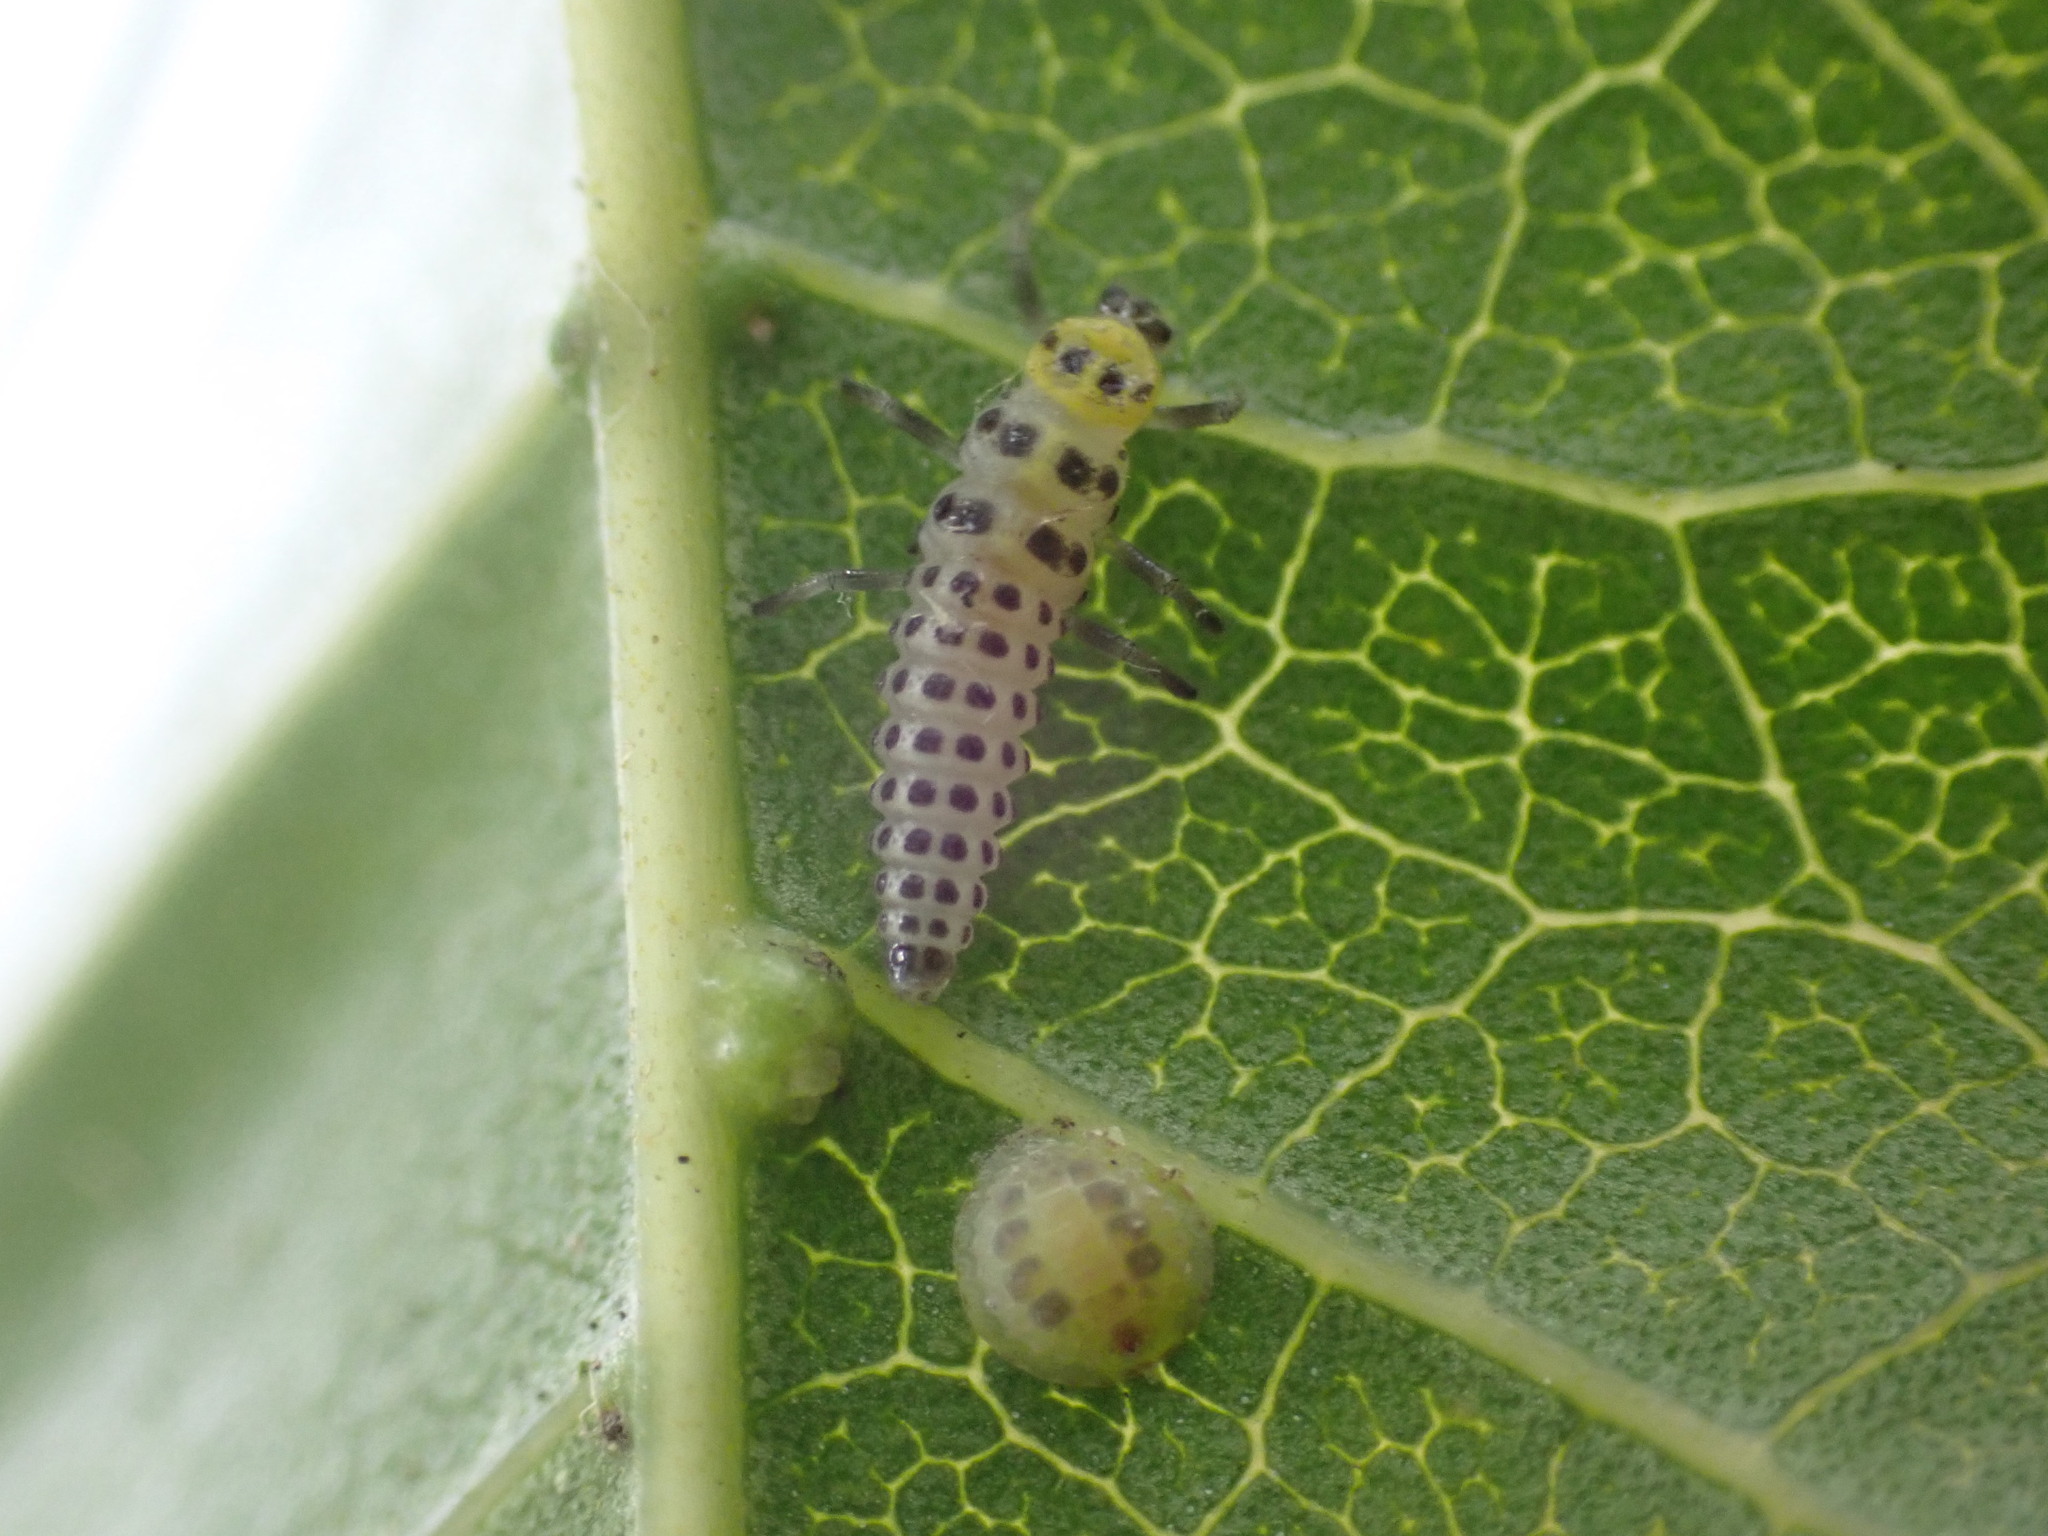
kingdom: Animalia
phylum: Arthropoda
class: Insecta
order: Coleoptera
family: Coccinellidae
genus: Illeis
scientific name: Illeis galbula
